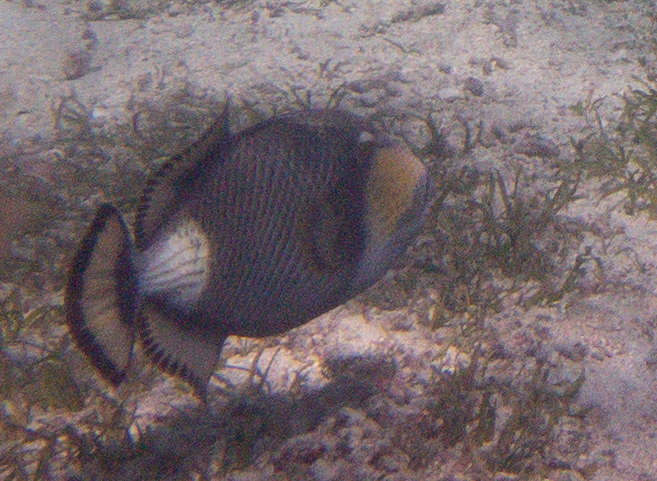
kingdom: Animalia
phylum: Chordata
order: Tetraodontiformes
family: Balistidae
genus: Balistoides
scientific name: Balistoides viridescens
